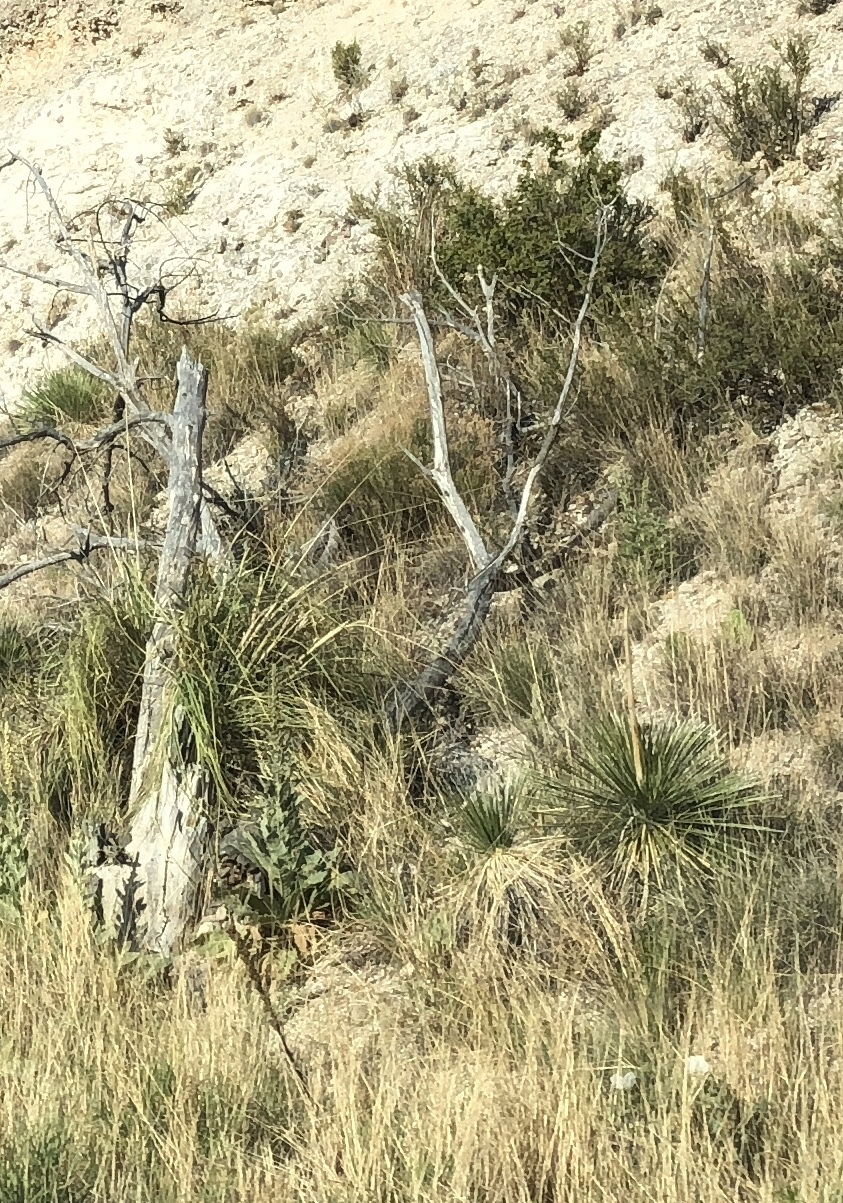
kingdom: Plantae
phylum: Tracheophyta
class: Liliopsida
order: Asparagales
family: Asparagaceae
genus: Yucca
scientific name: Yucca elata
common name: Palmella
